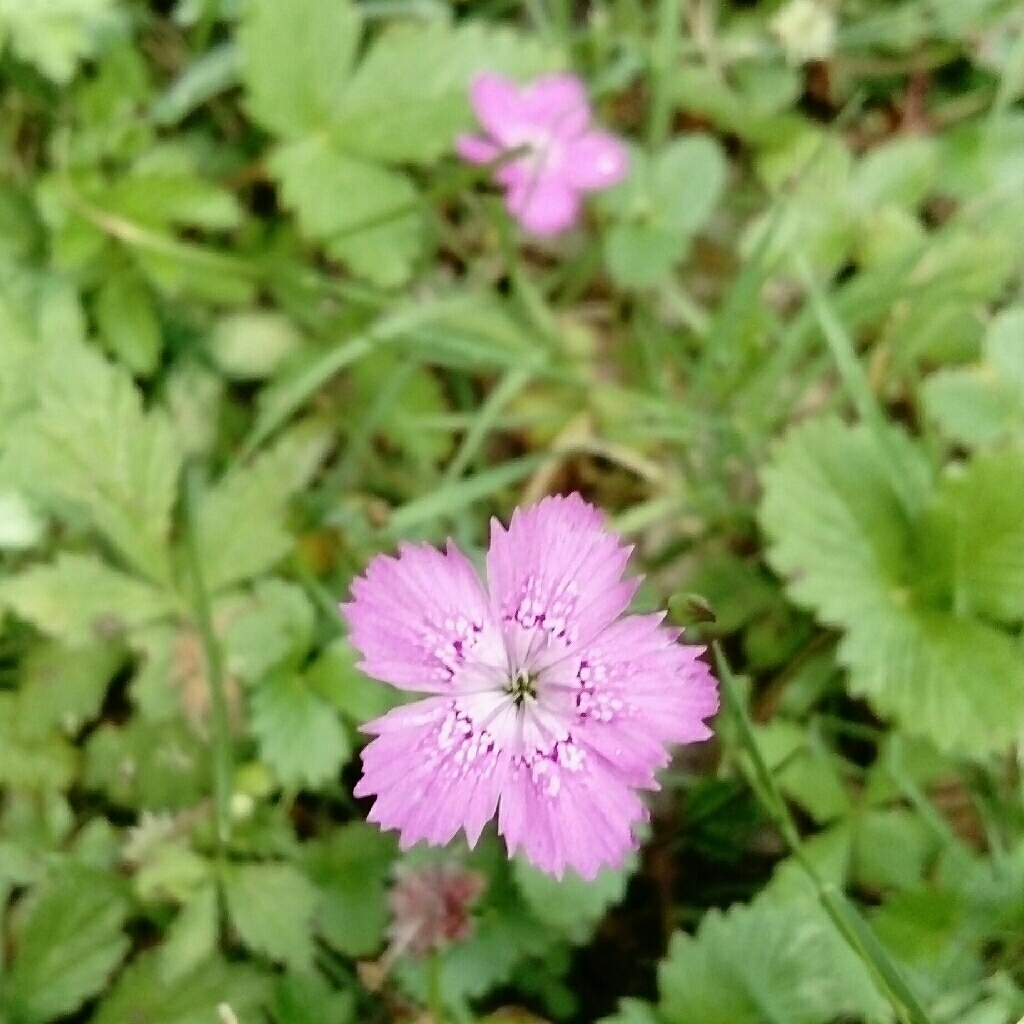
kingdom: Plantae
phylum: Tracheophyta
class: Magnoliopsida
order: Caryophyllales
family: Caryophyllaceae
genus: Dianthus
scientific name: Dianthus deltoides
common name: Maiden pink
